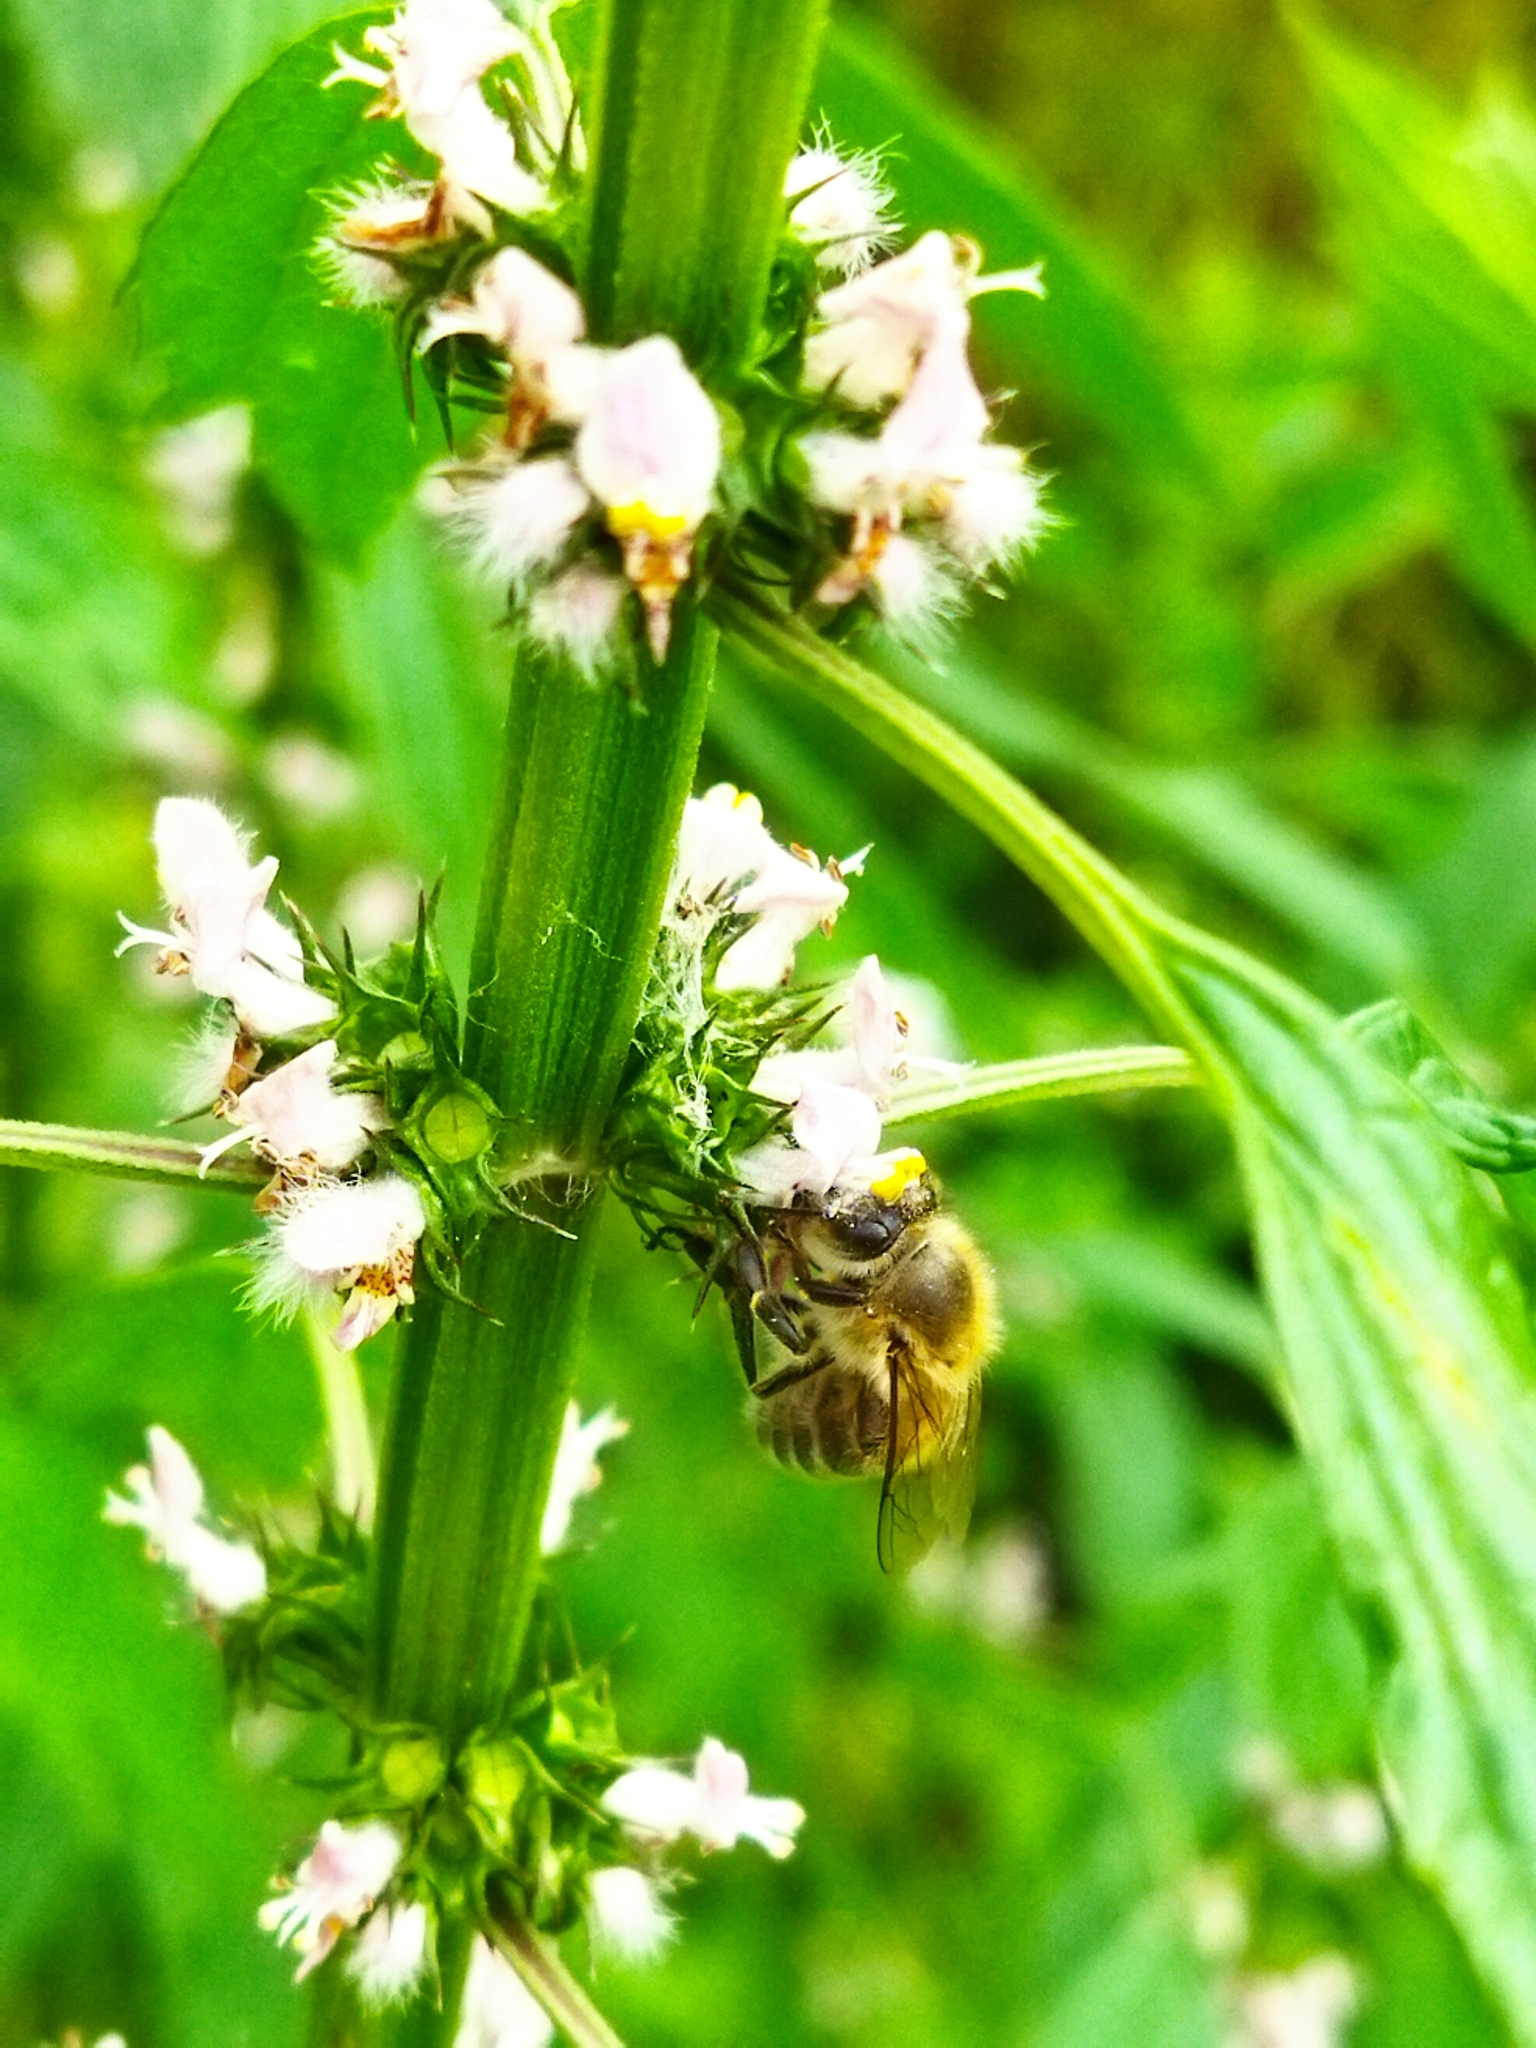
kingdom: Animalia
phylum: Arthropoda
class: Insecta
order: Hymenoptera
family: Apidae
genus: Apis
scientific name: Apis mellifera
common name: Honey bee
